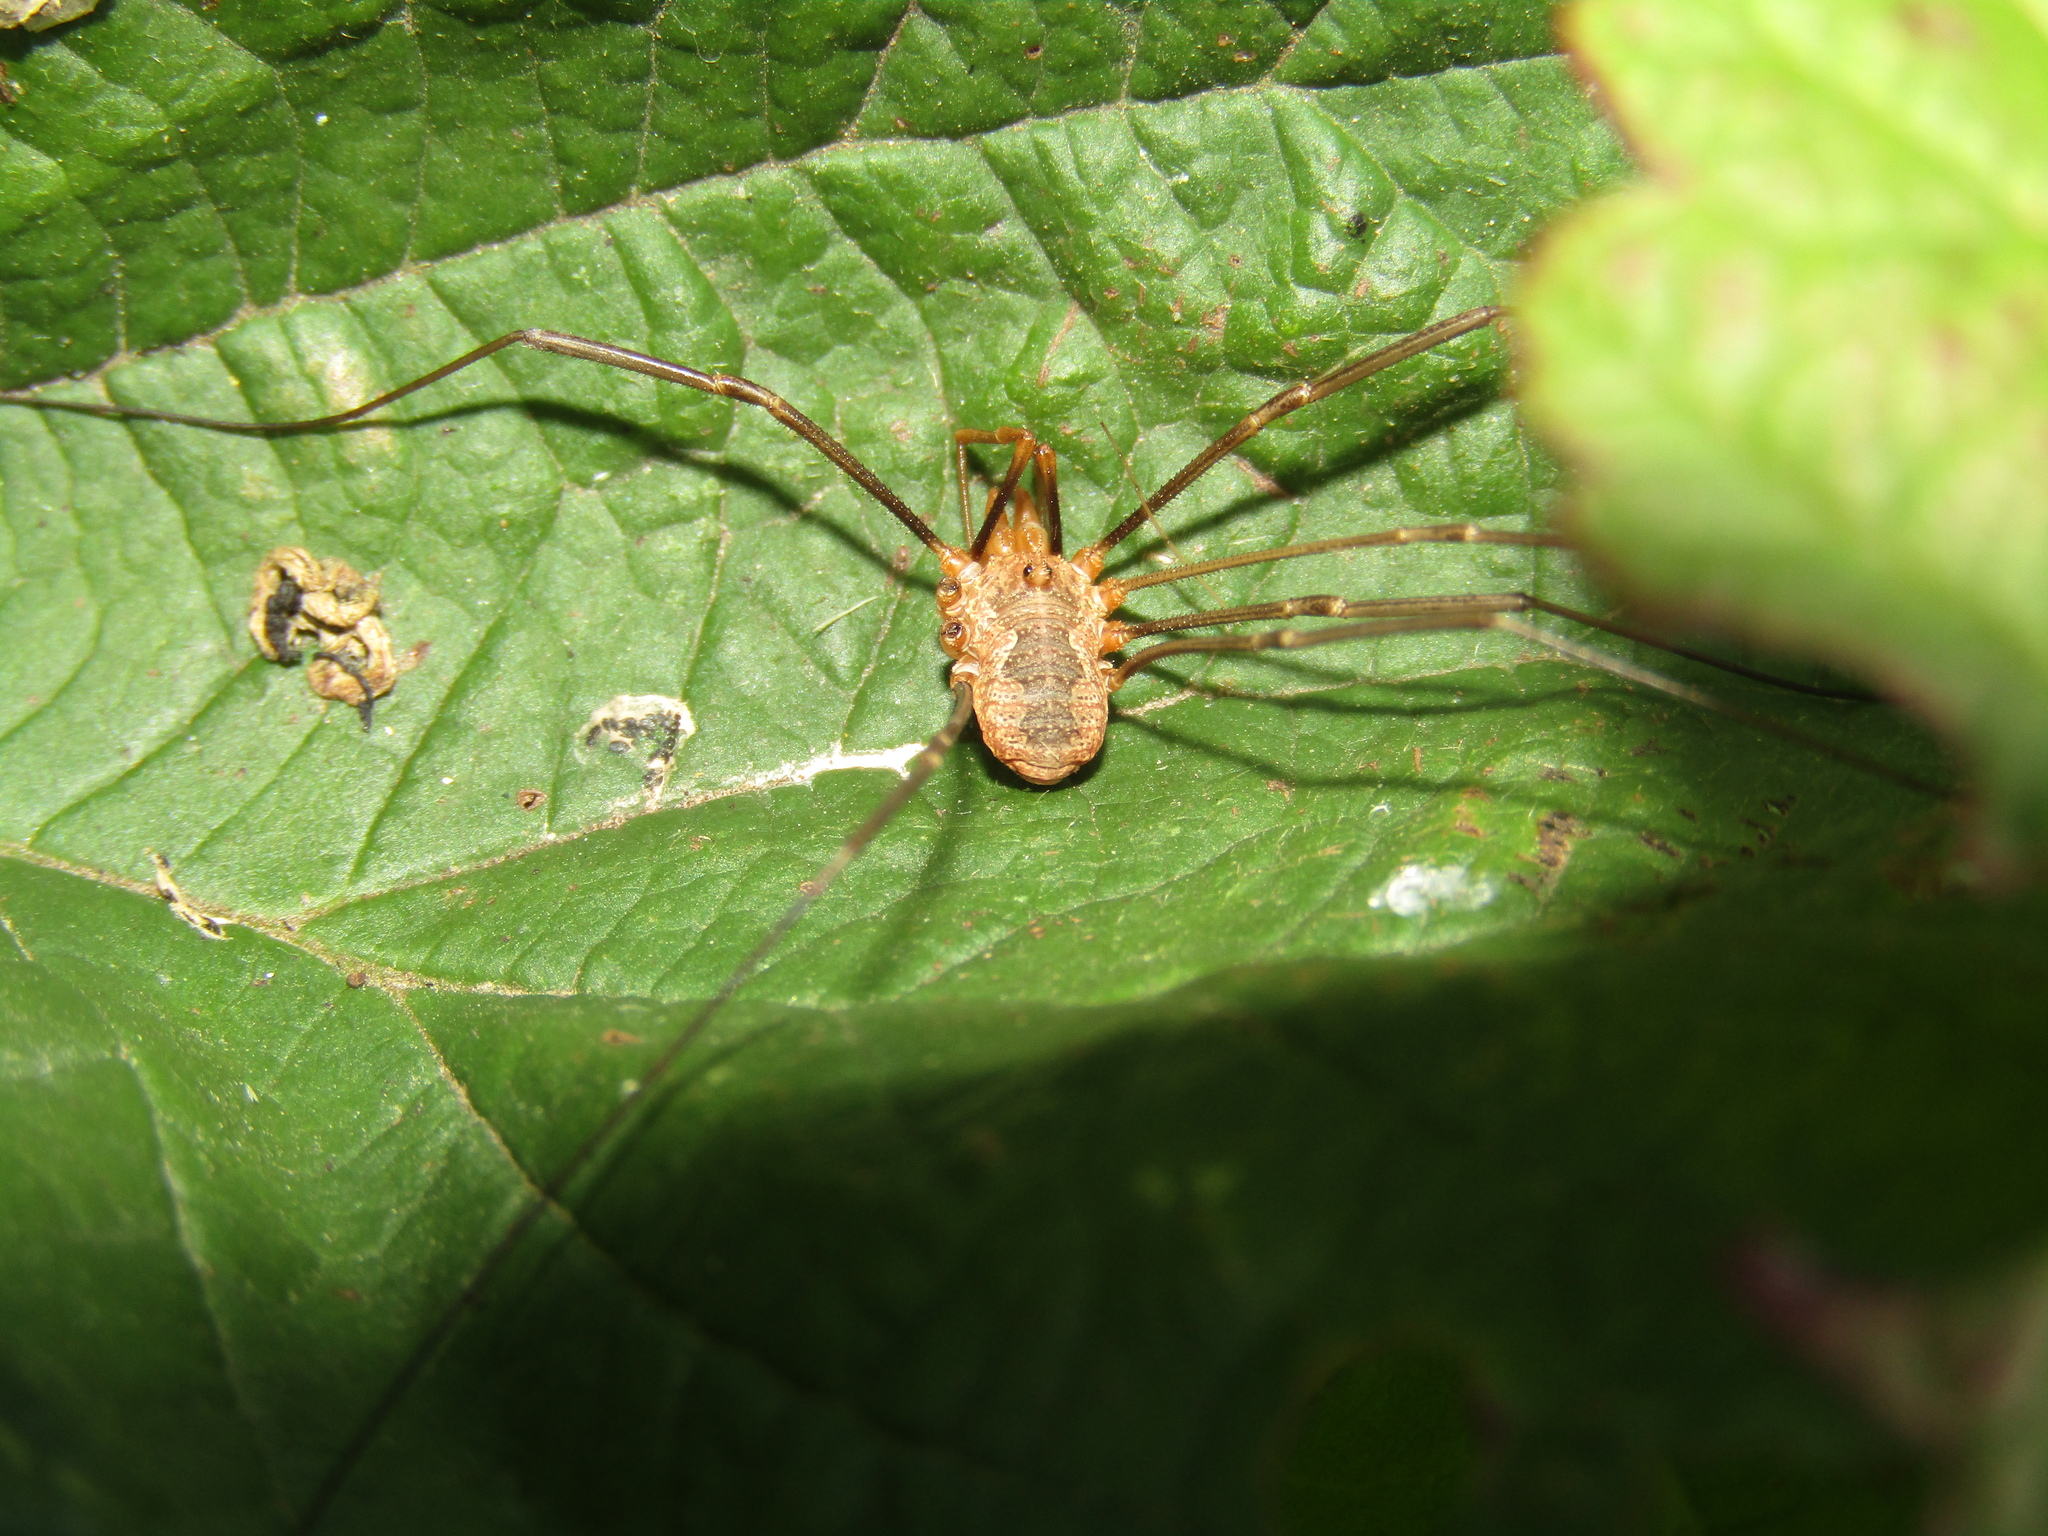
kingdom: Animalia
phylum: Arthropoda
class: Arachnida
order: Opiliones
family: Phalangiidae
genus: Phalangium
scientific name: Phalangium opilio
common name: Daddy longleg
